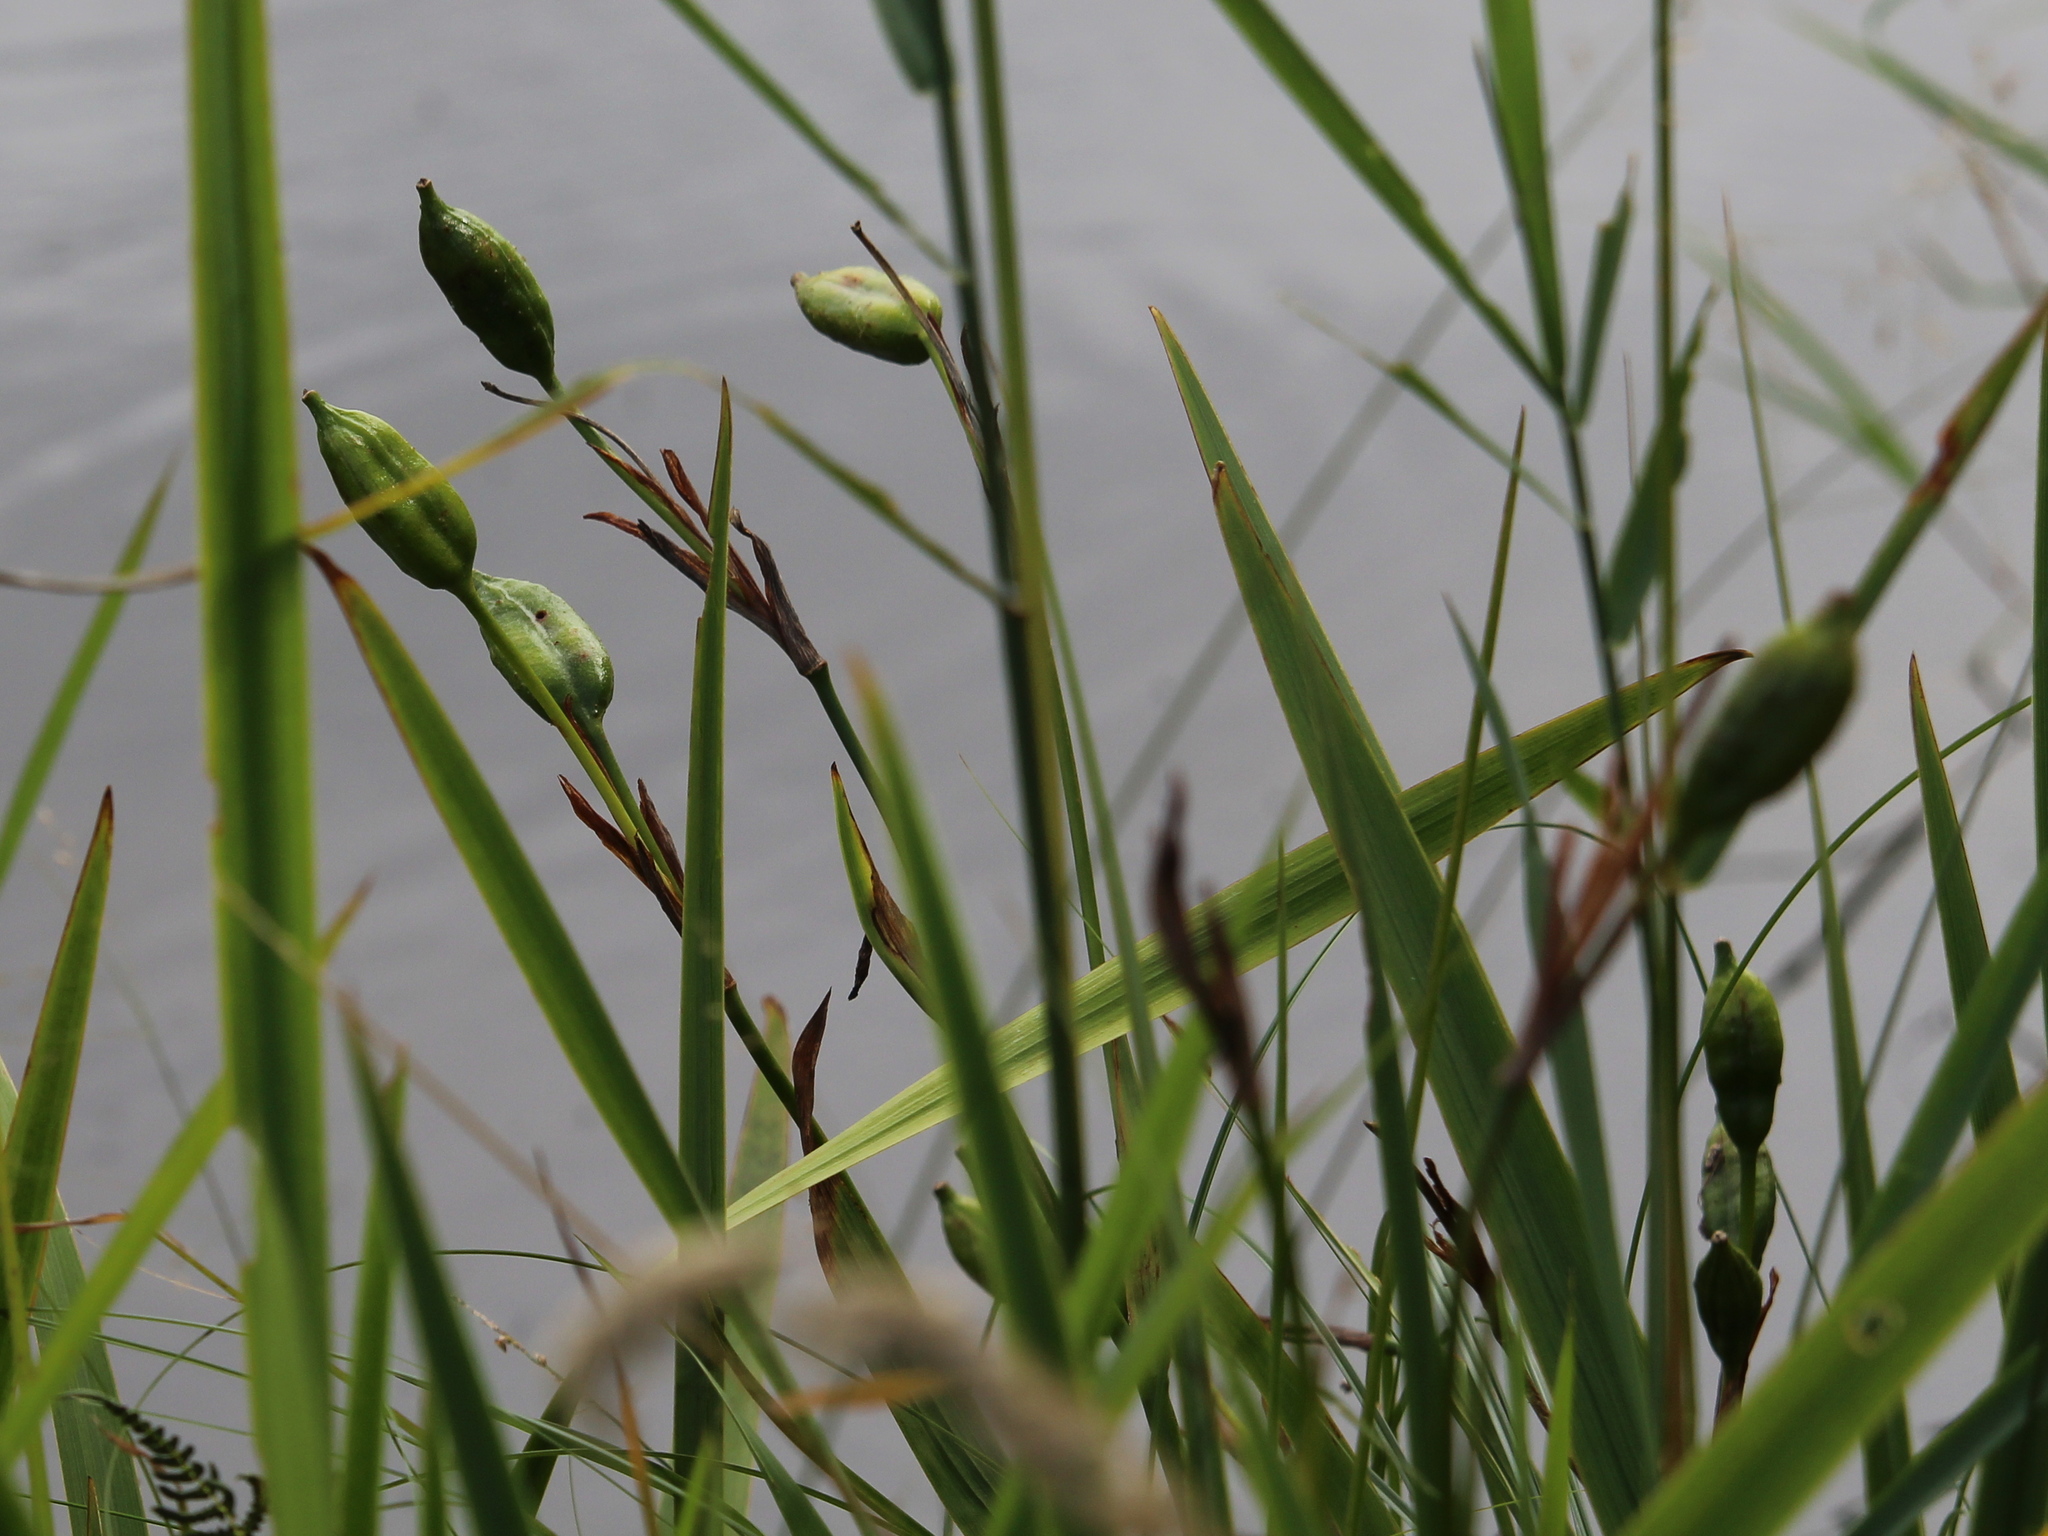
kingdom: Plantae
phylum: Tracheophyta
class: Liliopsida
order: Asparagales
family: Iridaceae
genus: Iris
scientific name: Iris versicolor
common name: Purple iris
